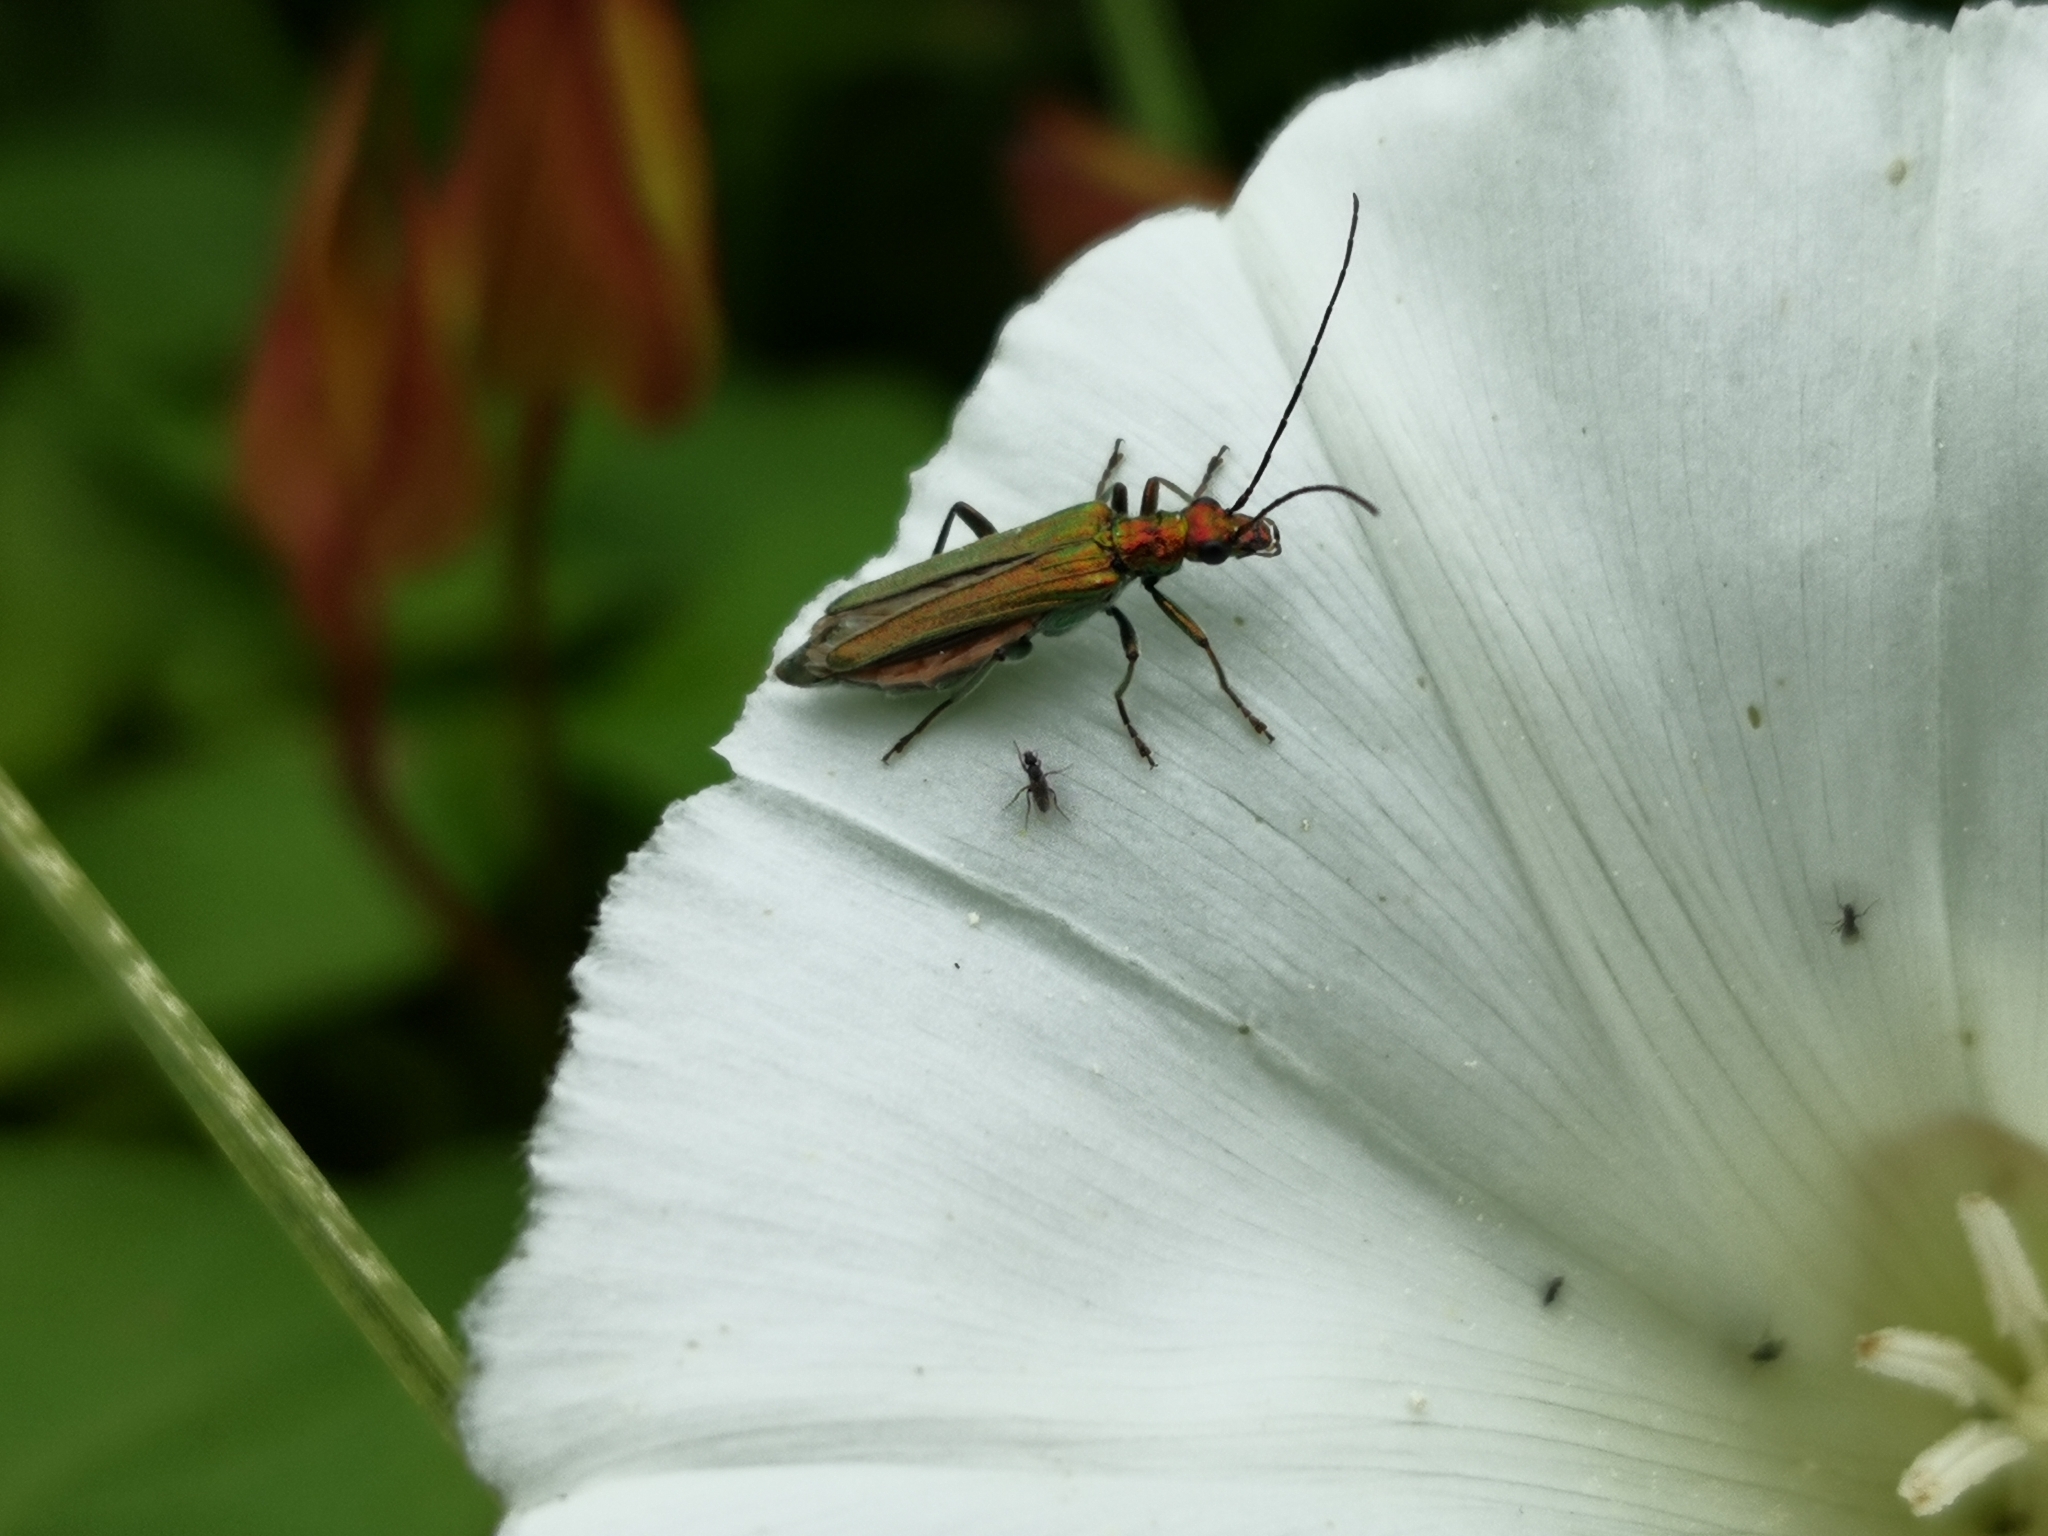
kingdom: Animalia
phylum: Arthropoda
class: Insecta
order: Coleoptera
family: Oedemeridae
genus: Oedemera
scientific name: Oedemera nobilis
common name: Swollen-thighed beetle
